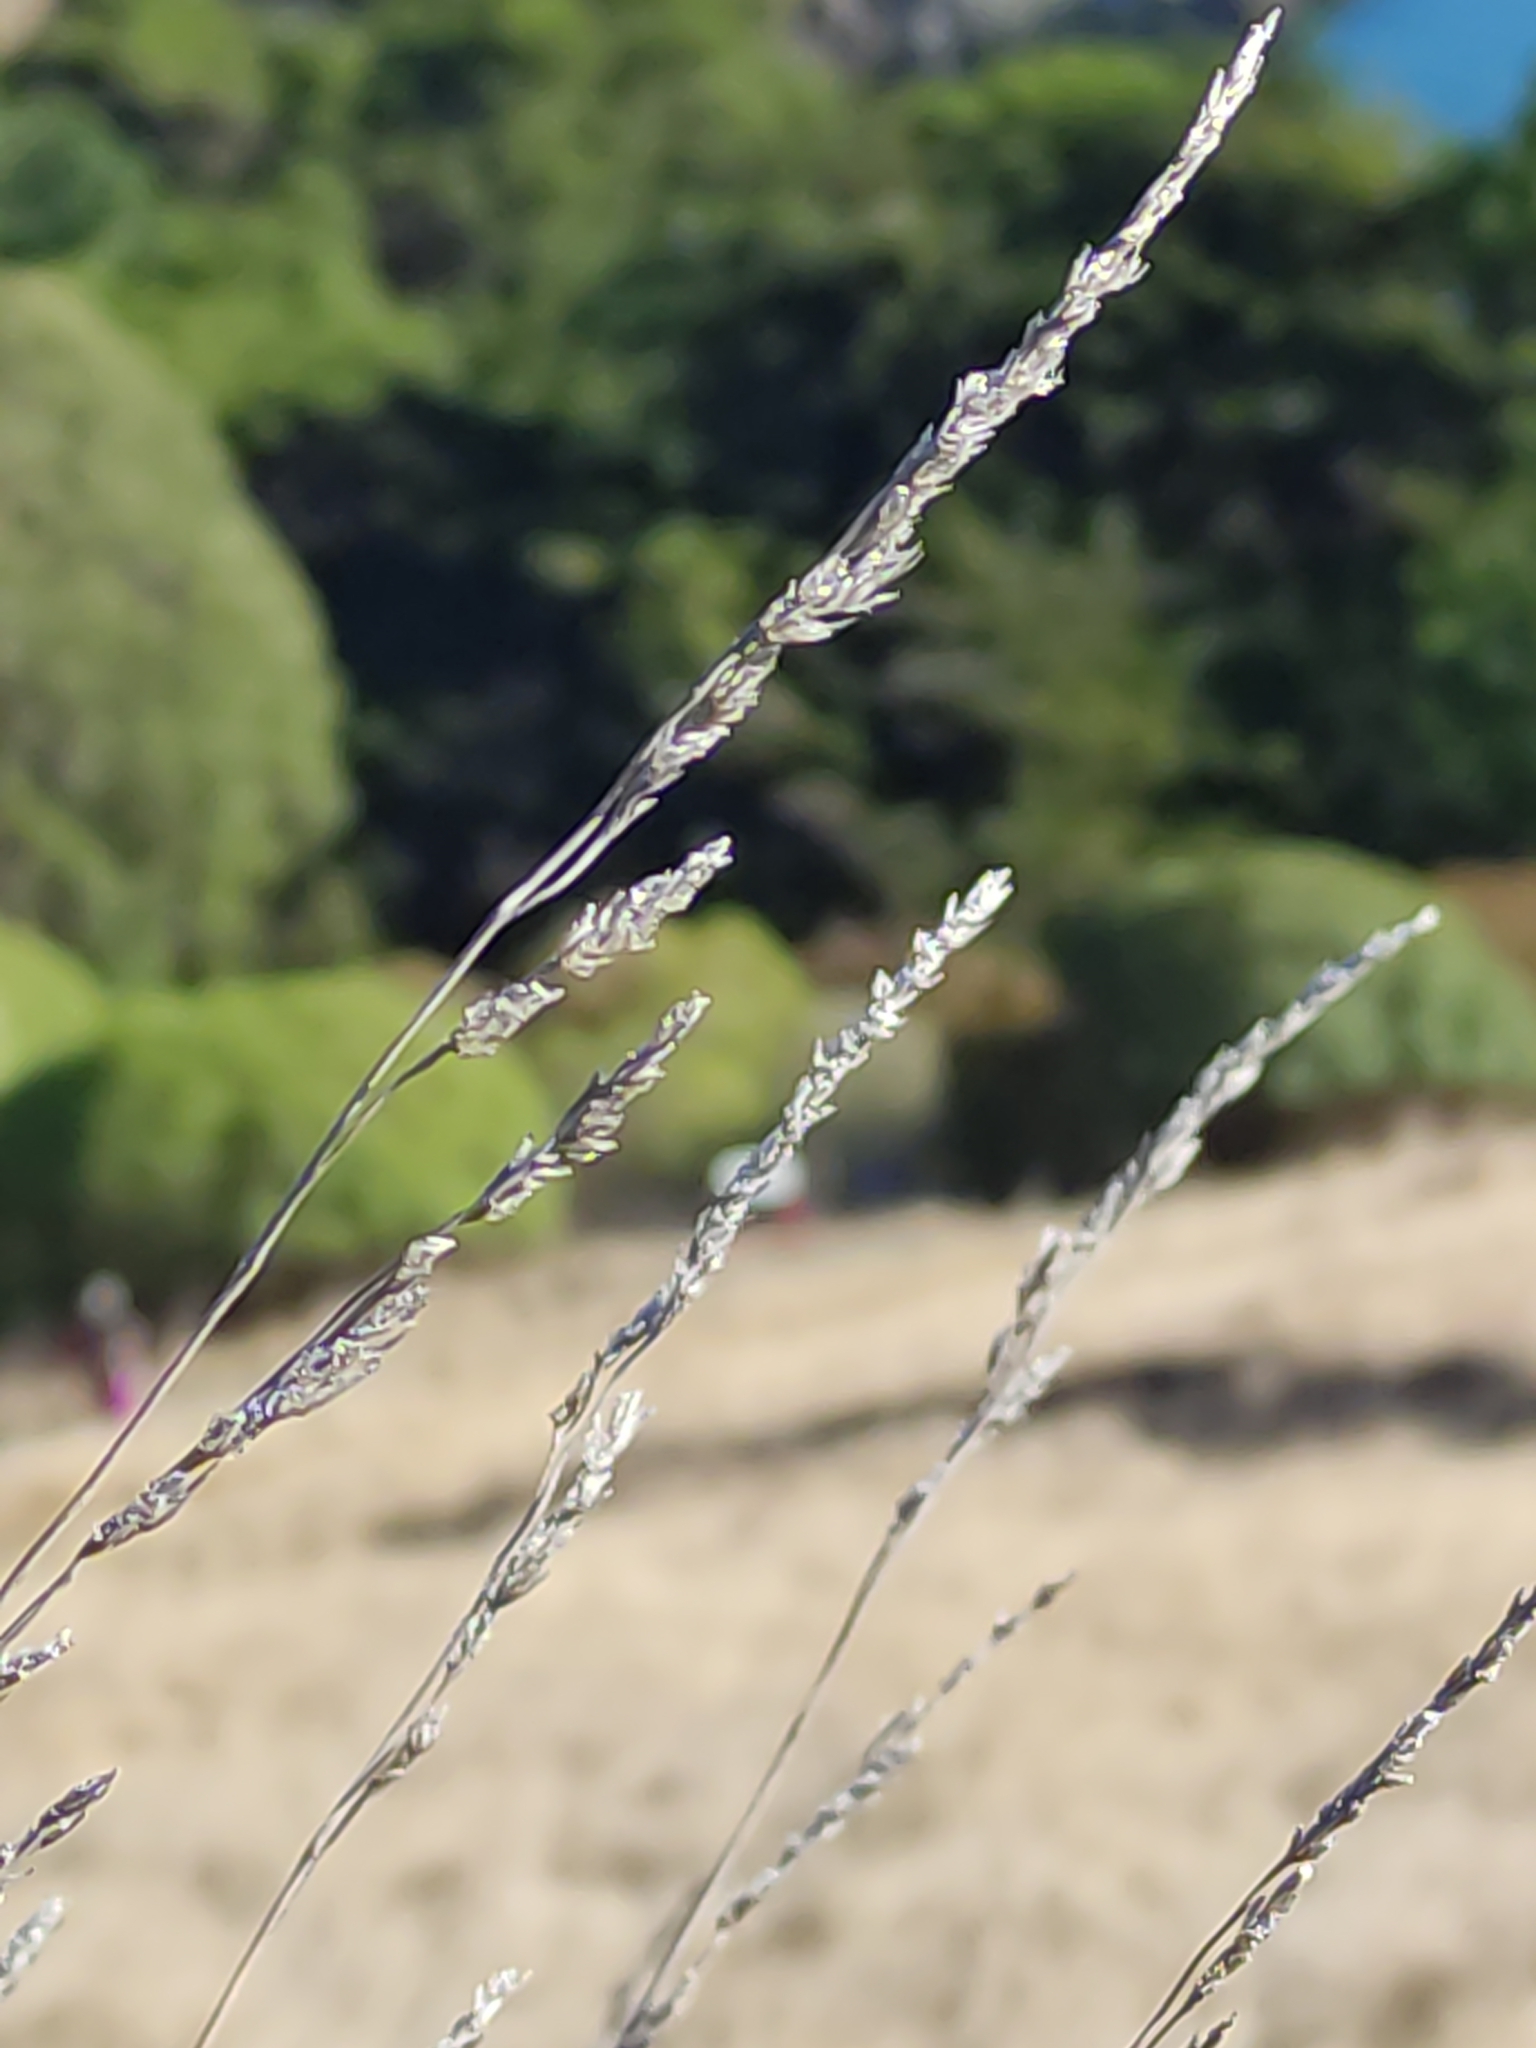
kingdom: Plantae
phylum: Tracheophyta
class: Liliopsida
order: Poales
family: Poaceae
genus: Dactylis
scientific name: Dactylis glomerata
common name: Orchardgrass
